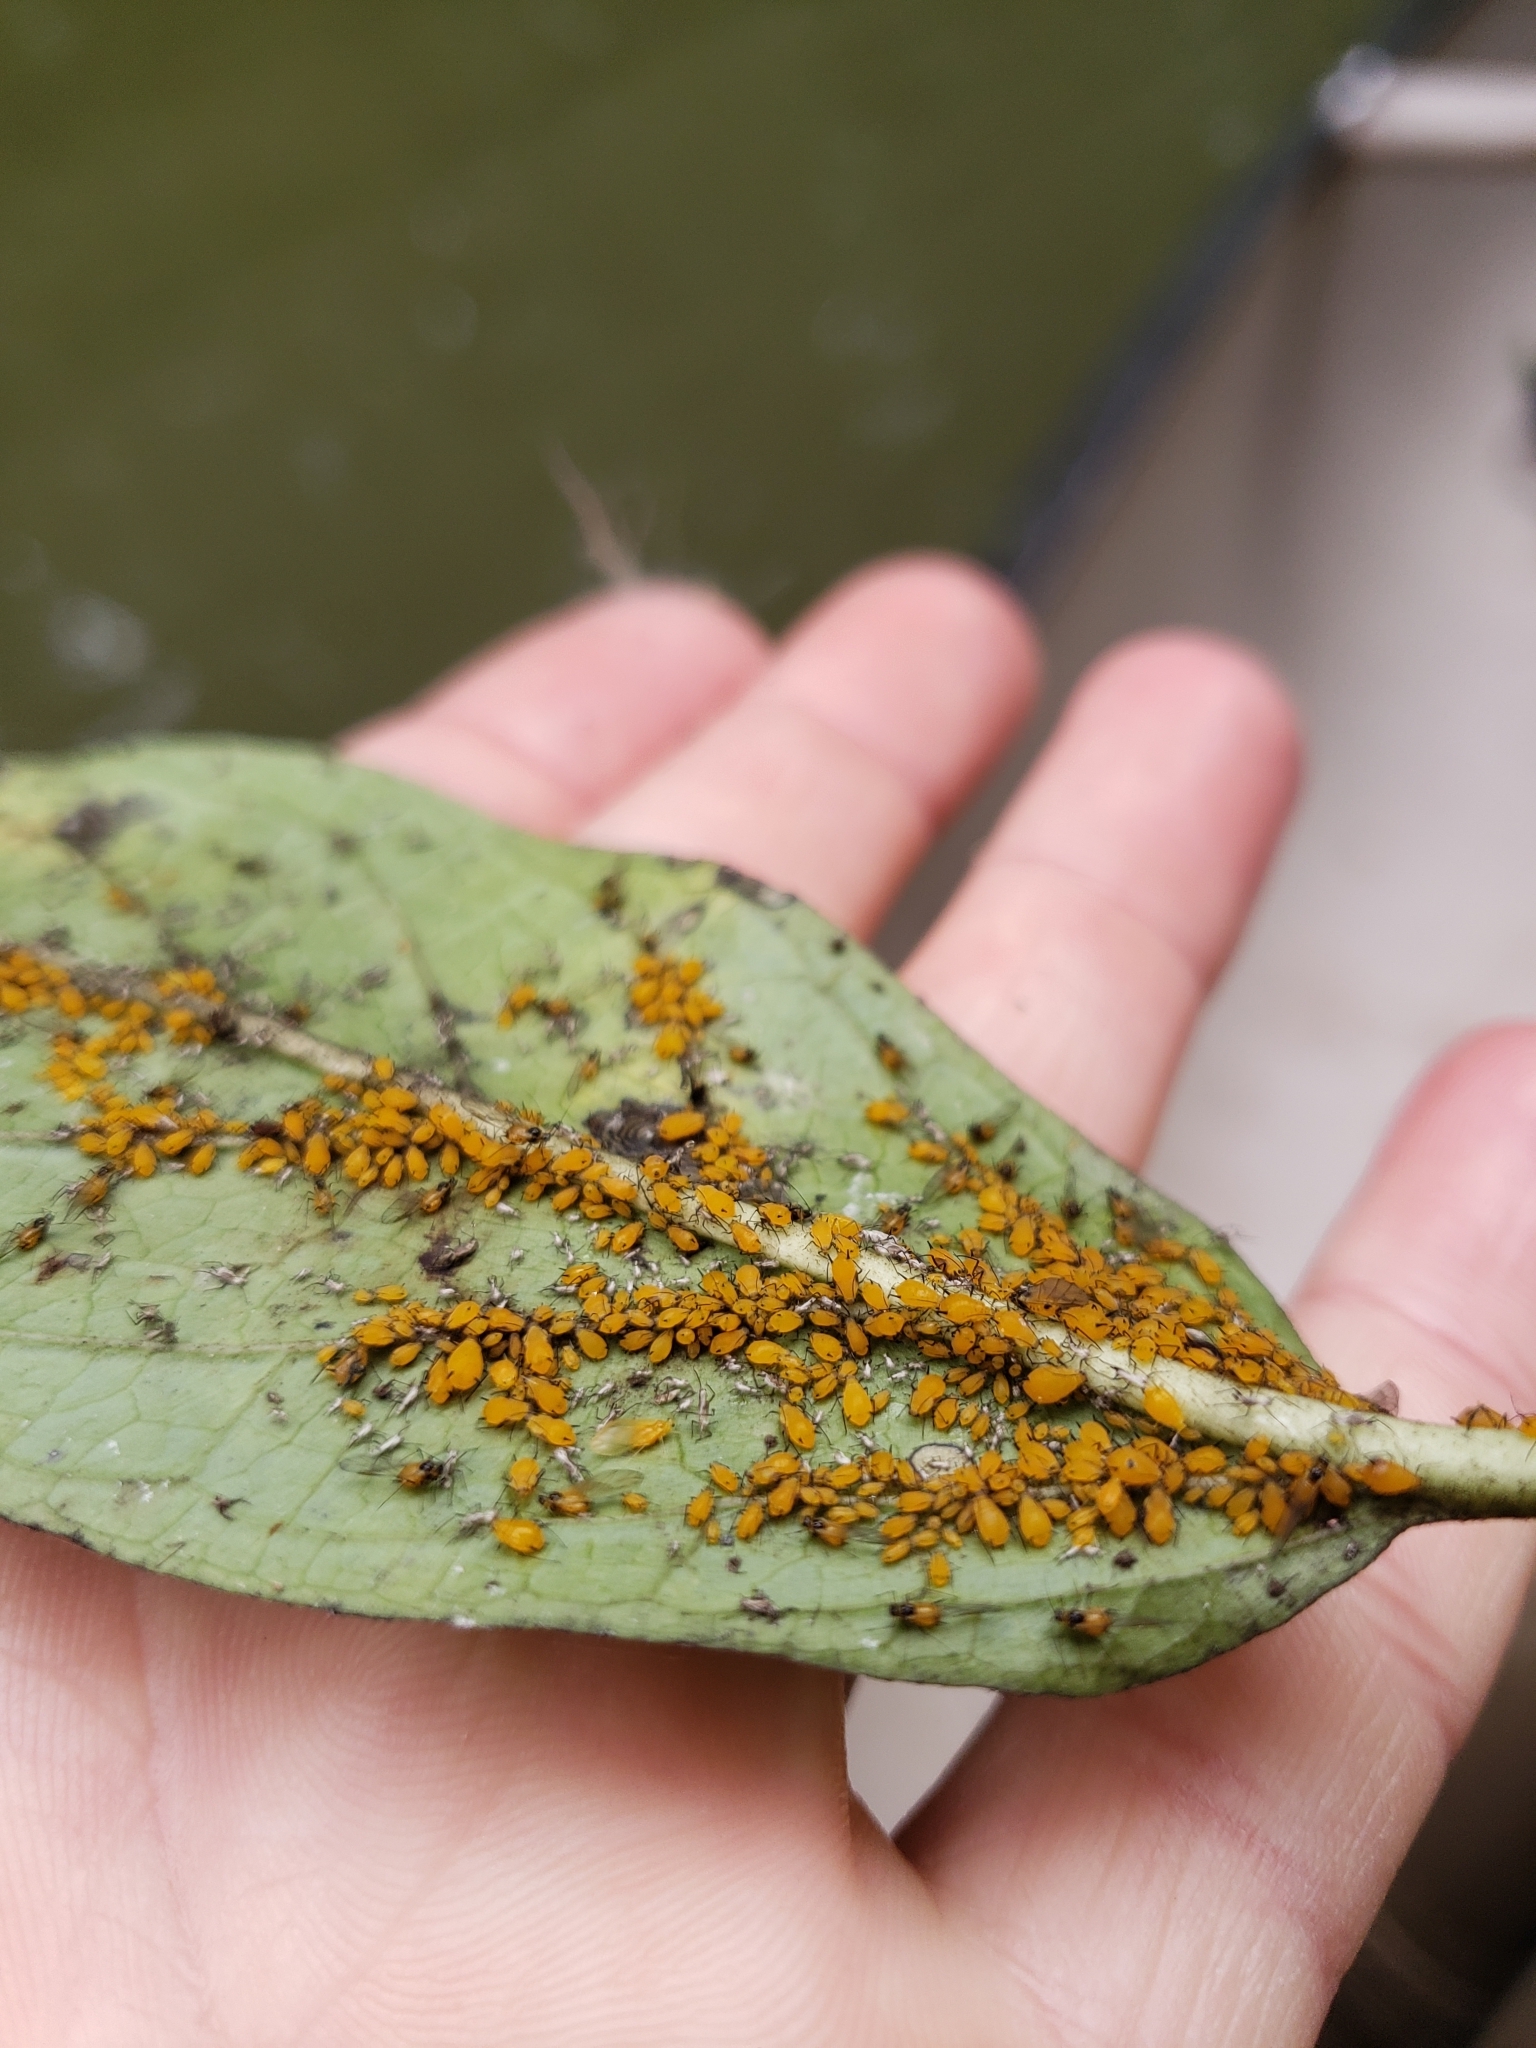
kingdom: Animalia
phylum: Arthropoda
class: Insecta
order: Hemiptera
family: Aphididae
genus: Aphis
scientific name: Aphis nerii
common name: Oleander aphid
